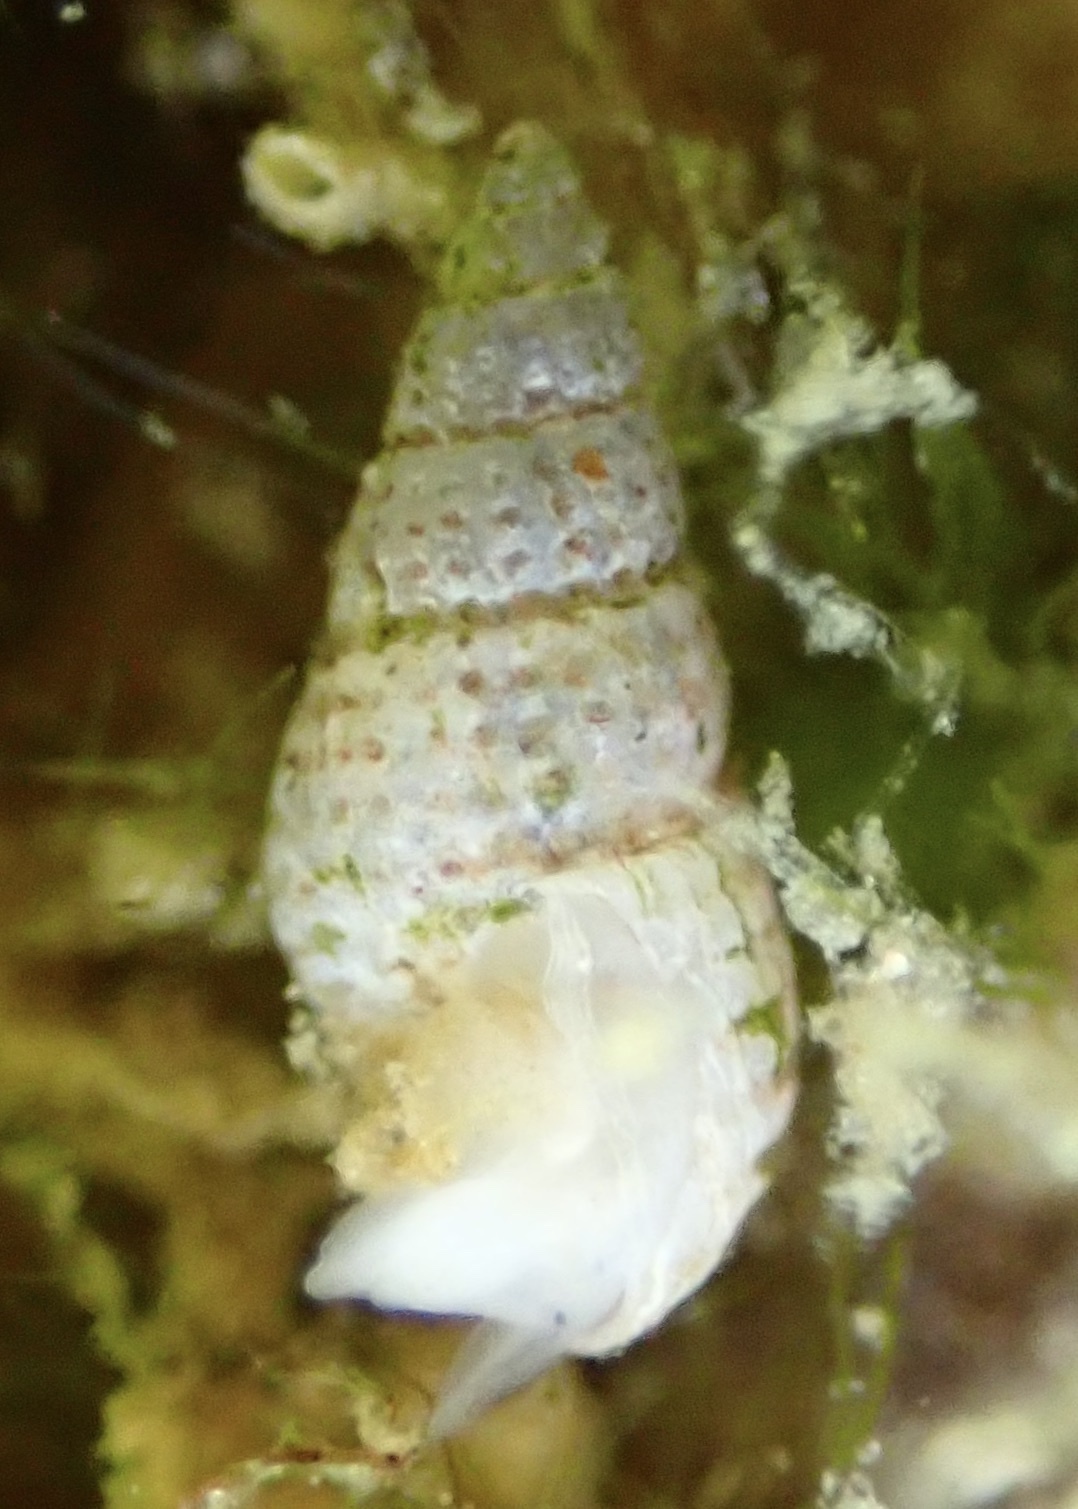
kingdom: Animalia
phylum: Mollusca
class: Gastropoda
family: Pyramidellidae
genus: Boonea
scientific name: Boonea seminuda
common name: Half-smooth odostome
